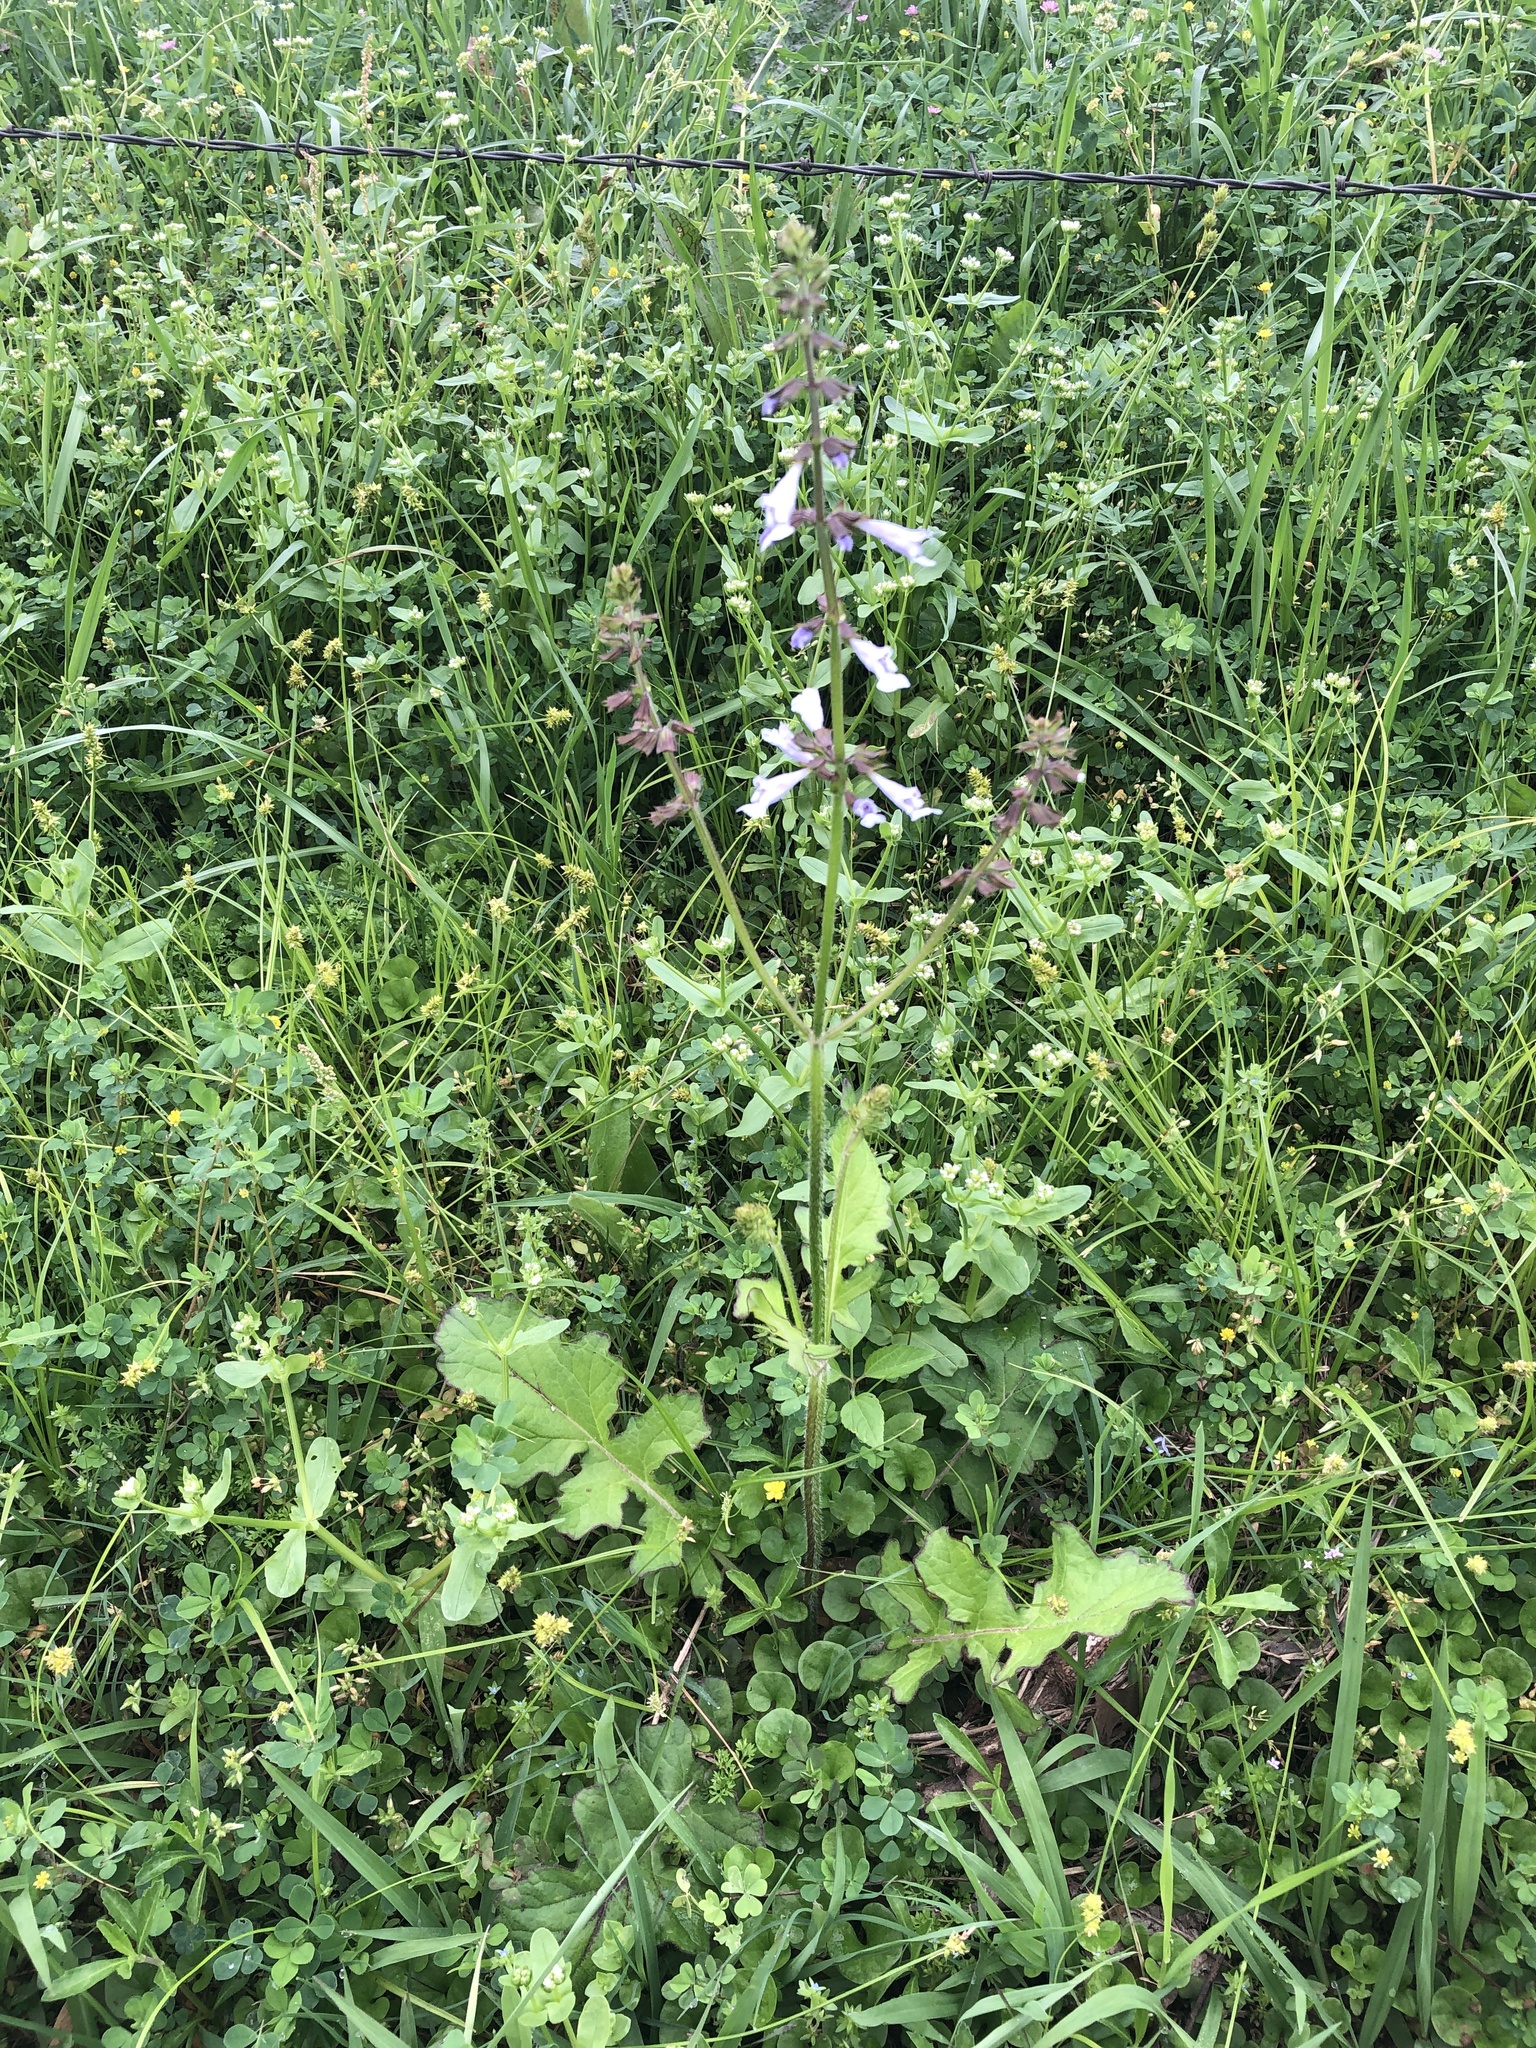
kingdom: Plantae
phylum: Tracheophyta
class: Magnoliopsida
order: Lamiales
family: Lamiaceae
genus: Salvia
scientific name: Salvia lyrata
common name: Cancerweed
